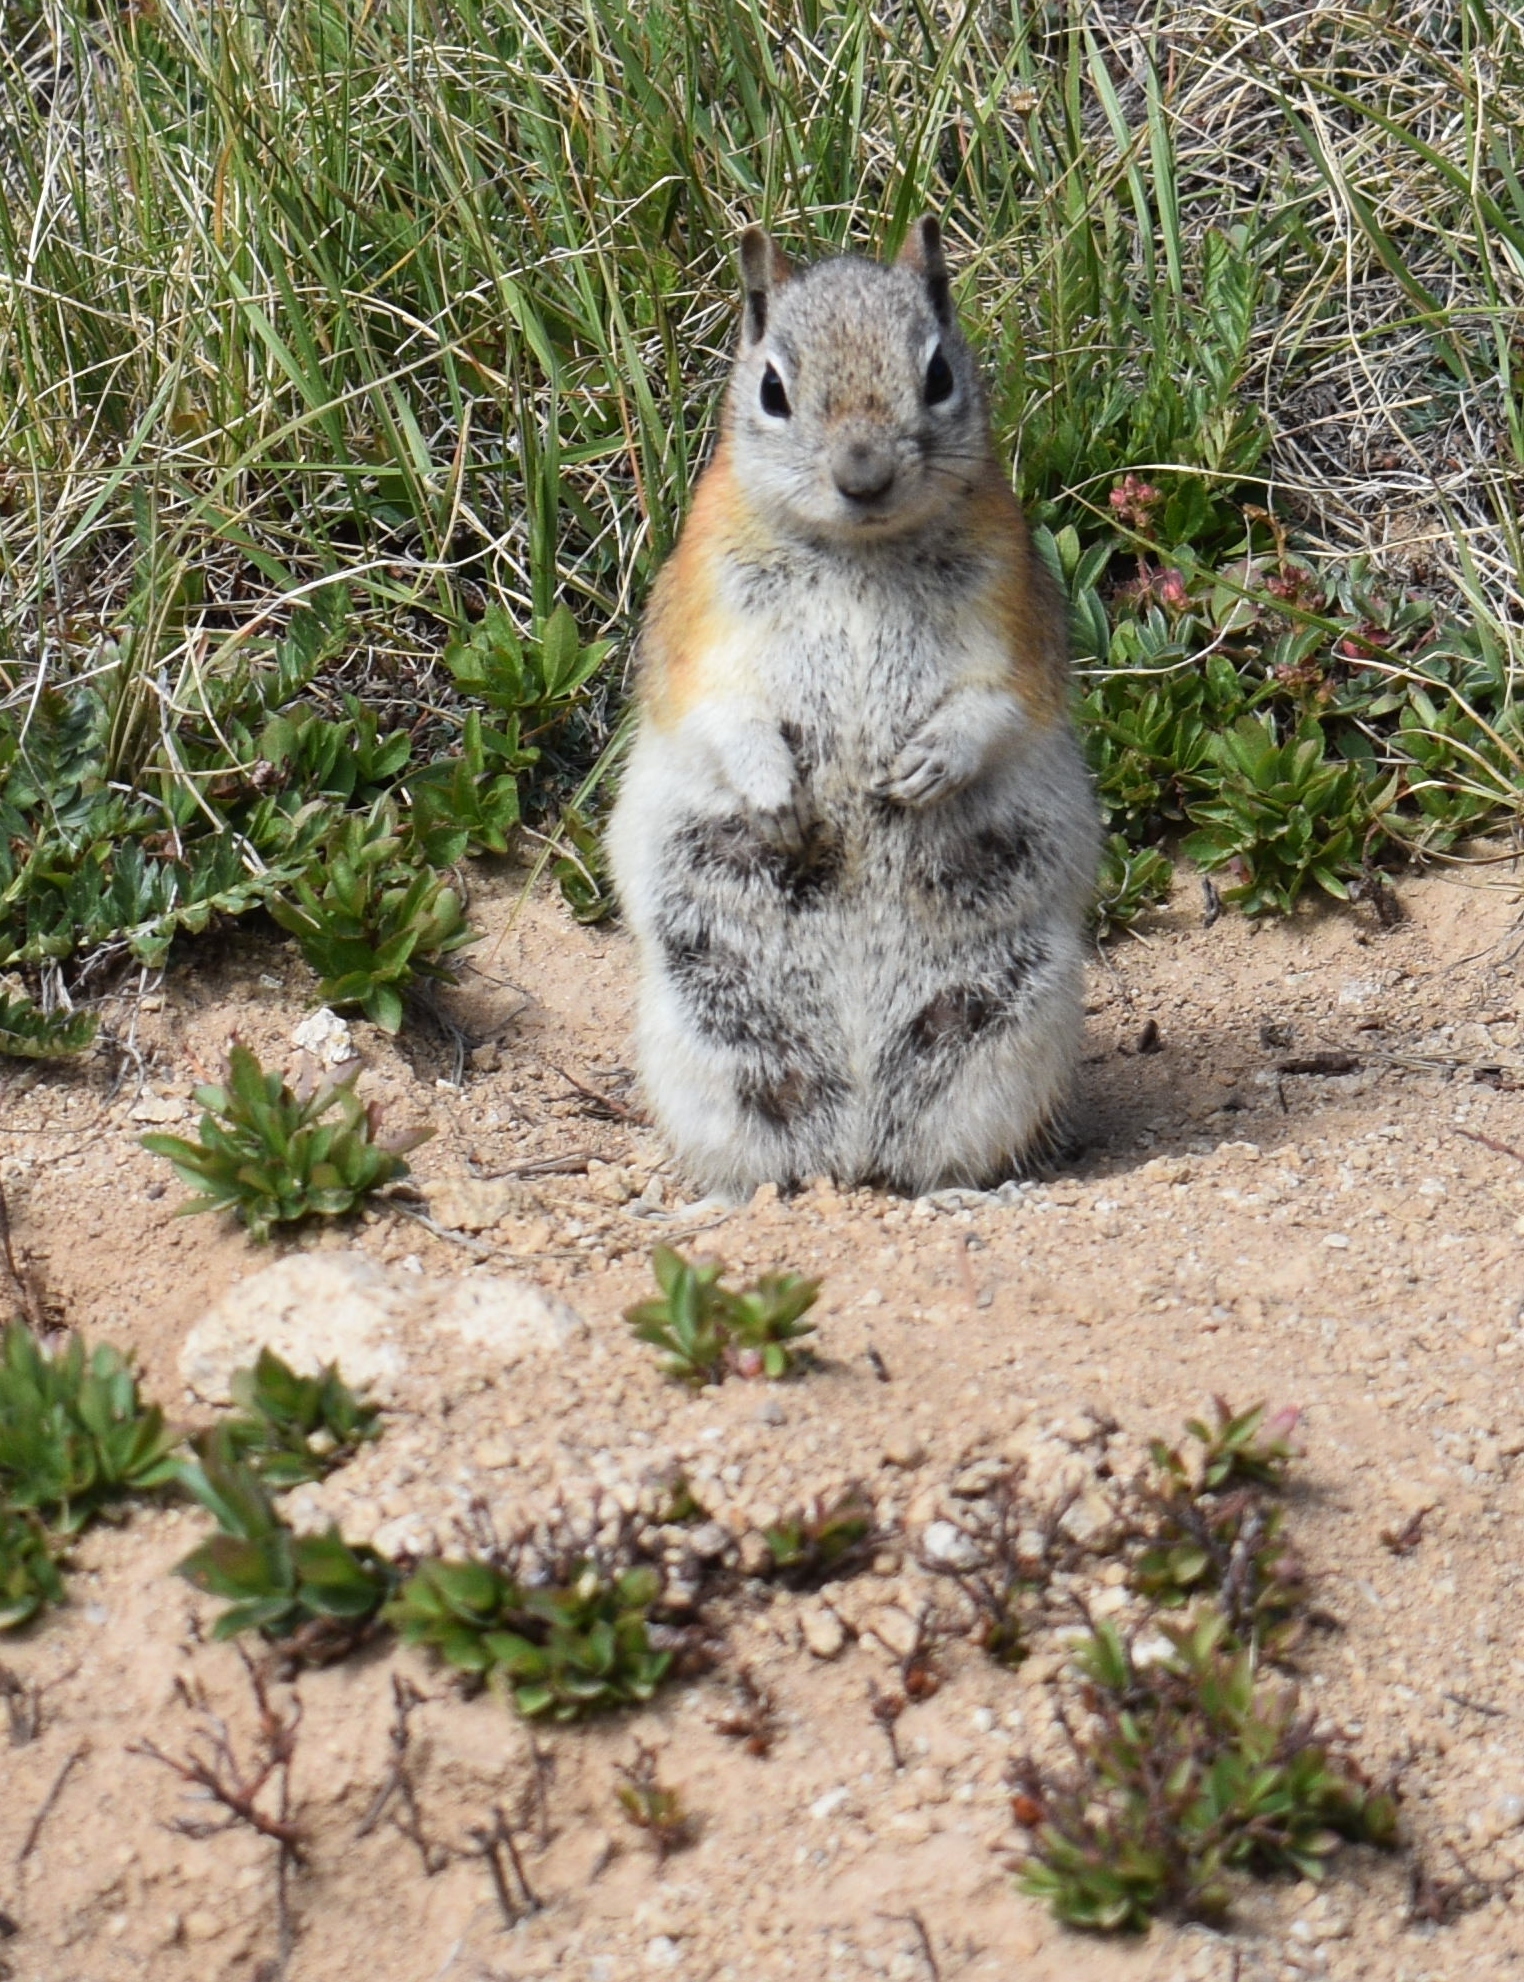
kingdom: Animalia
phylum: Chordata
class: Mammalia
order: Rodentia
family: Sciuridae
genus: Callospermophilus
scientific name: Callospermophilus lateralis
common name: Golden-mantled ground squirrel
